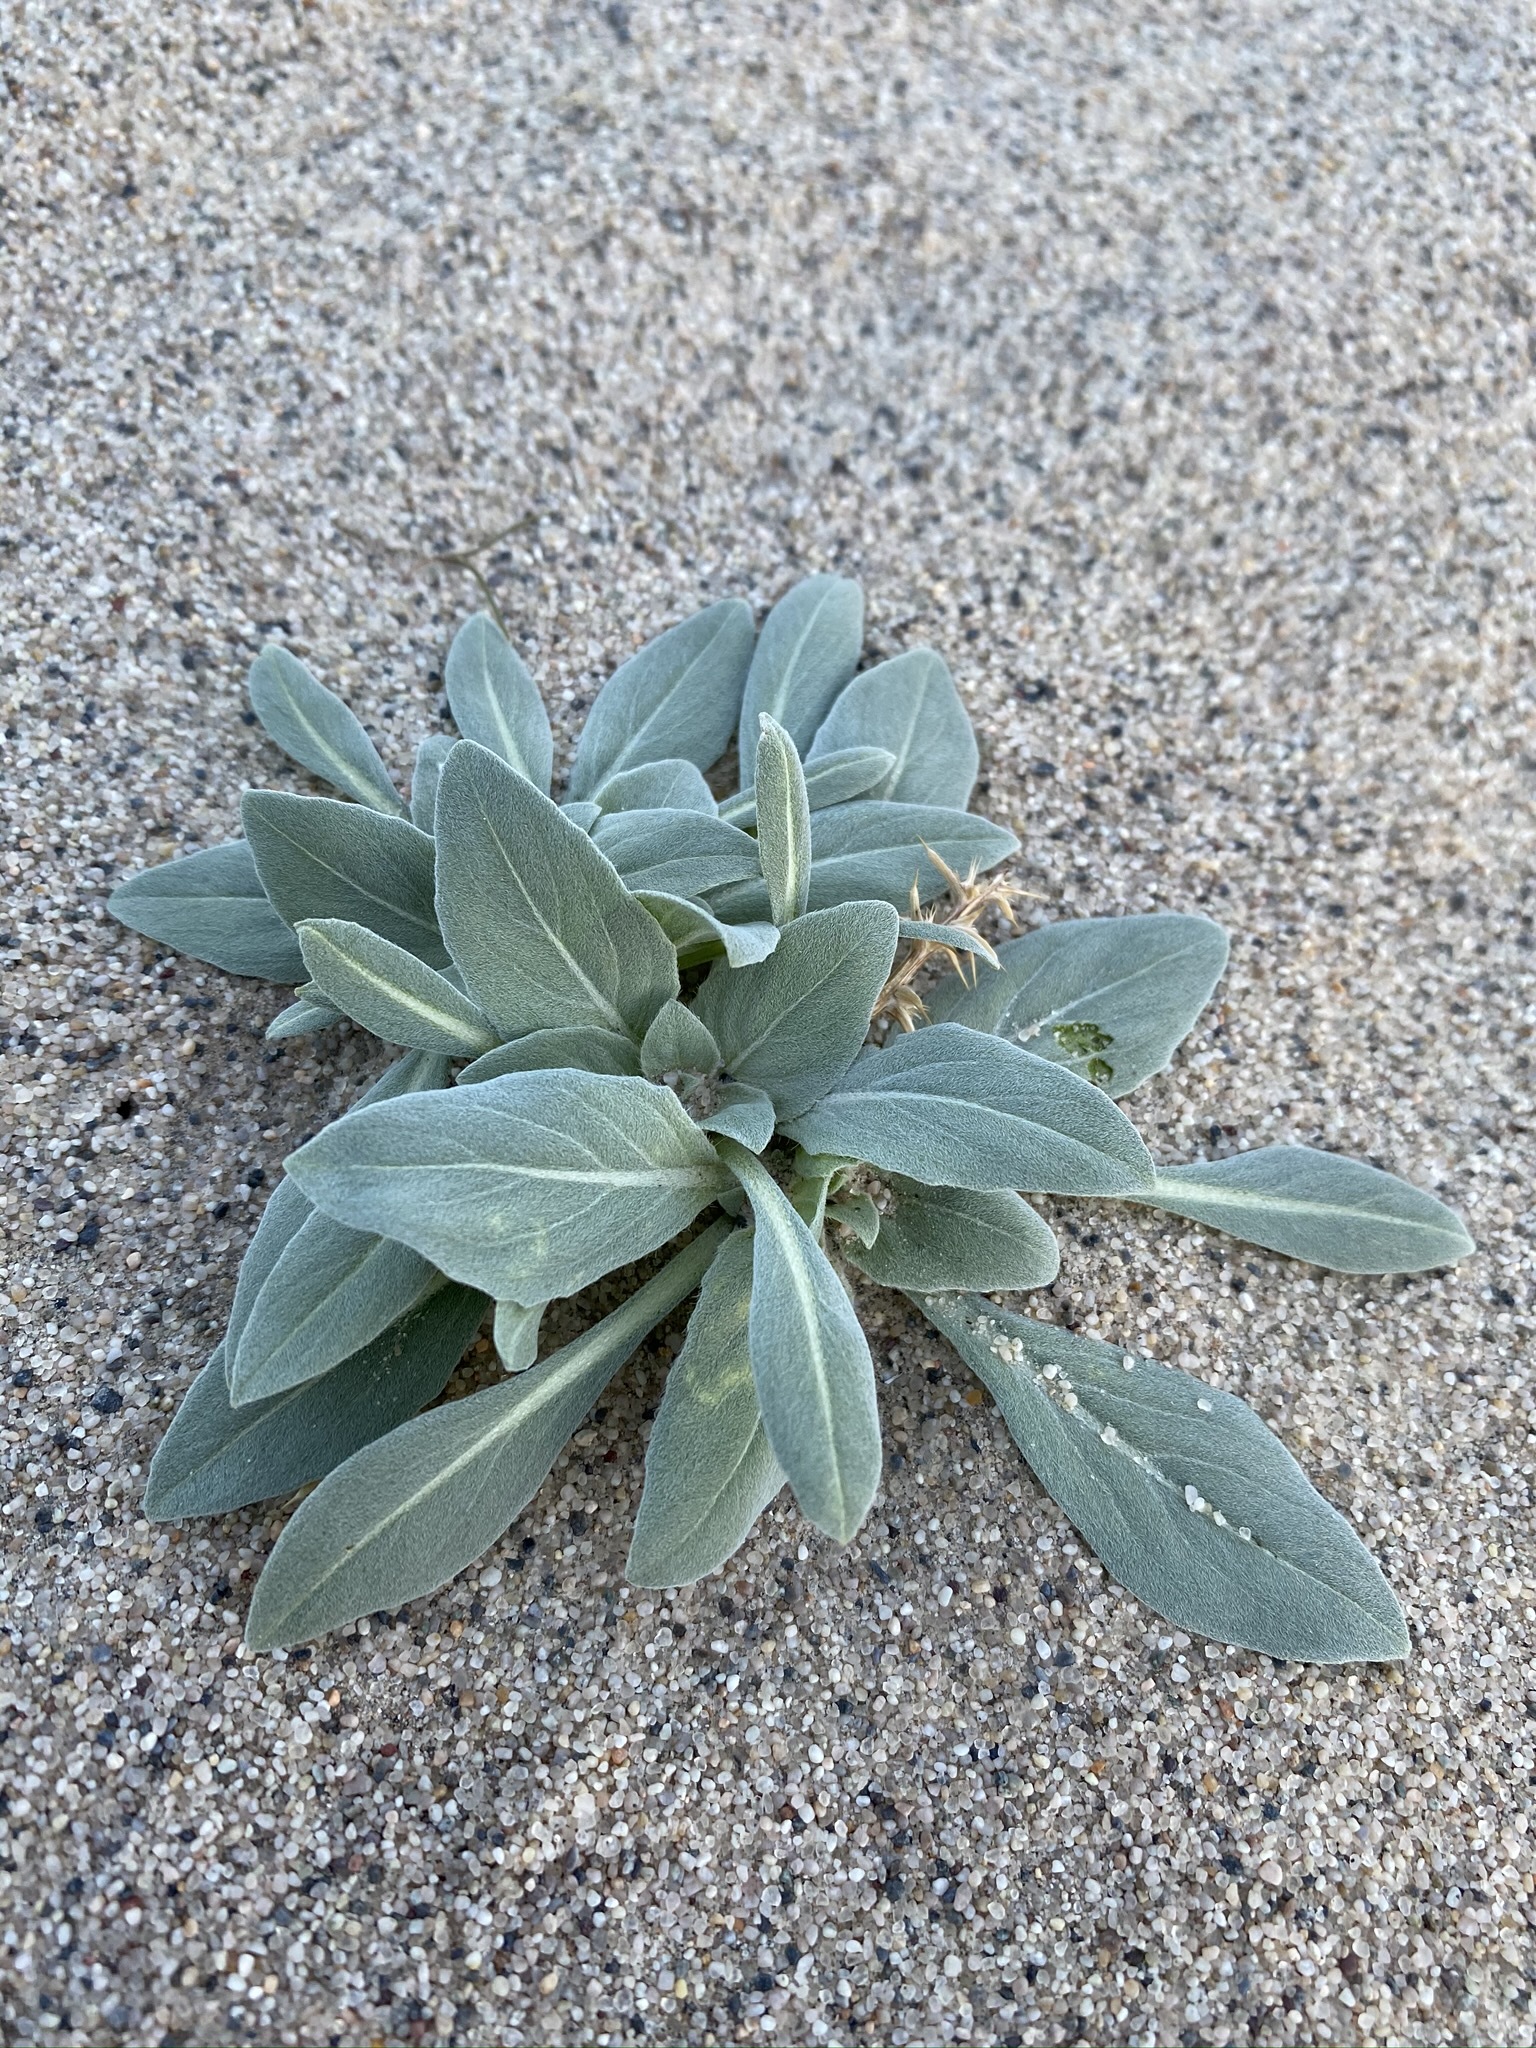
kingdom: Plantae
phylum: Tracheophyta
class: Magnoliopsida
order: Myrtales
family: Onagraceae
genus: Oenothera
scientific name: Oenothera avita
